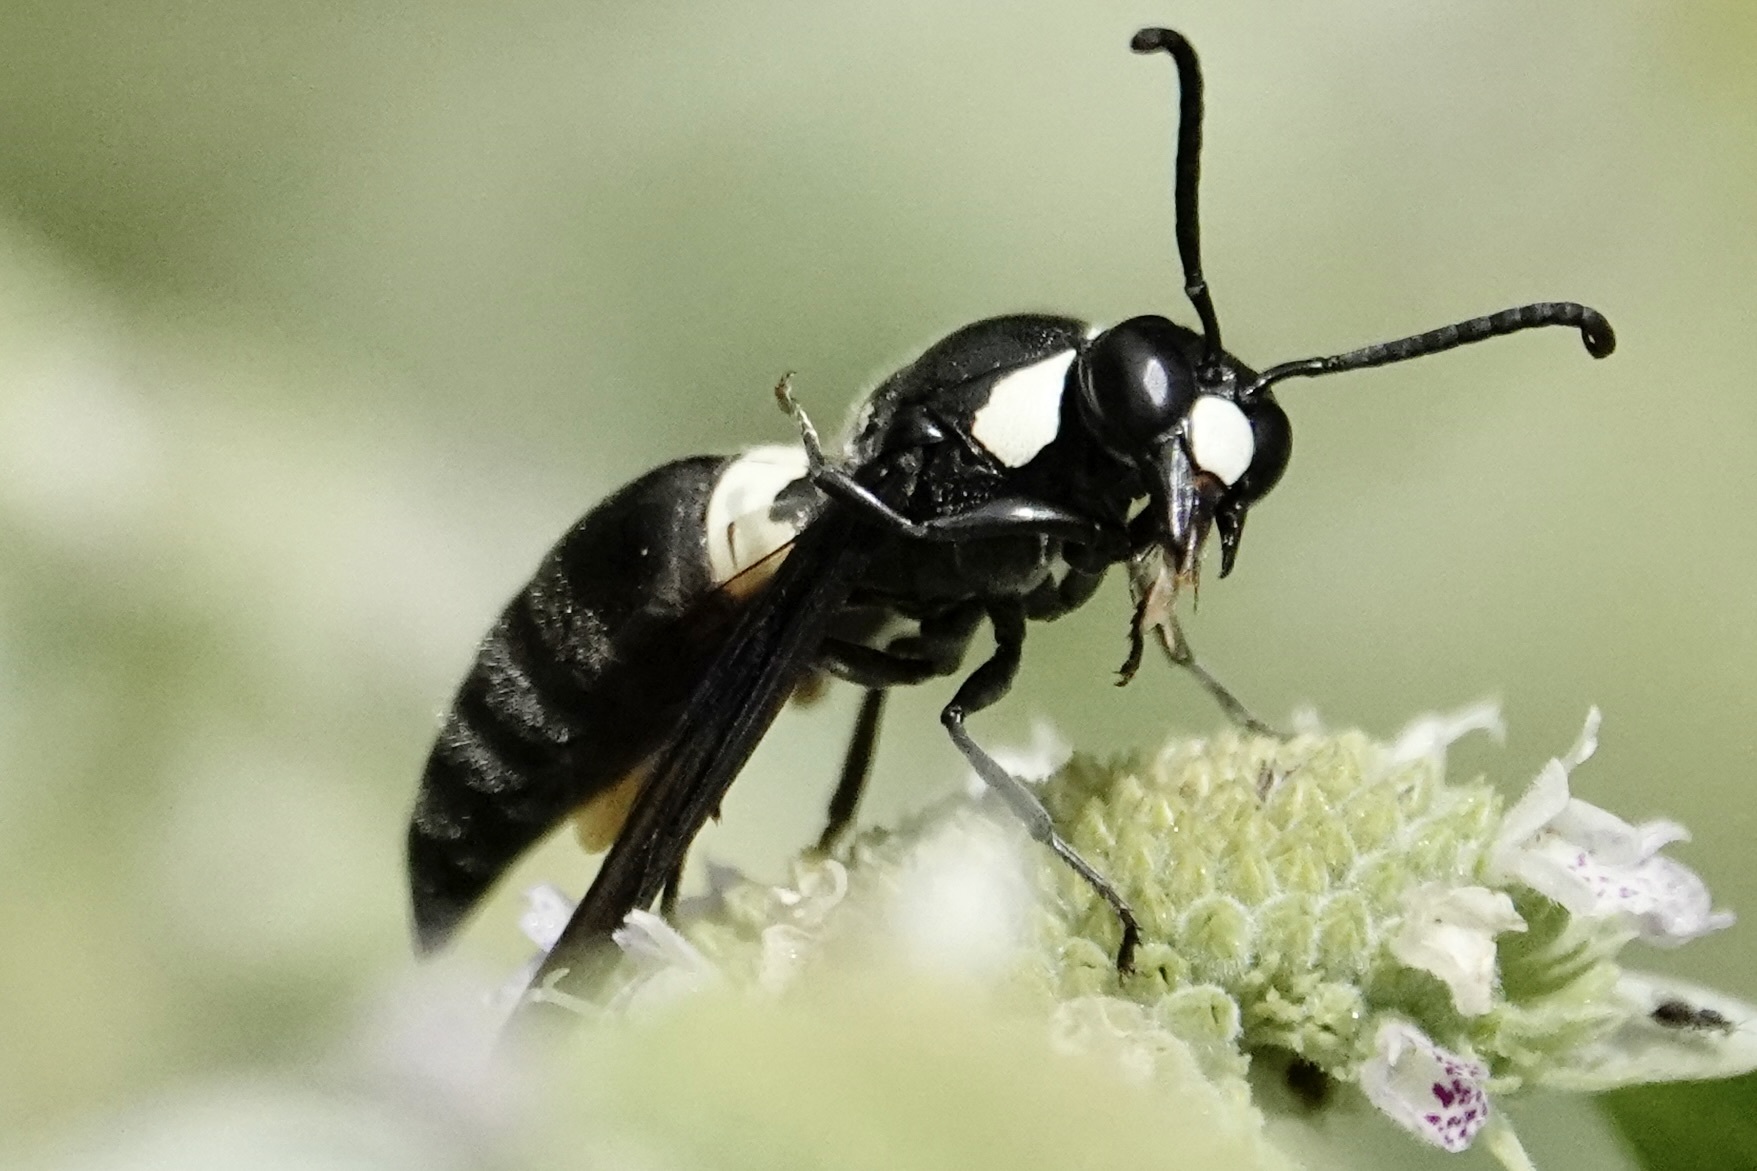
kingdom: Animalia
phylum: Arthropoda
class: Insecta
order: Hymenoptera
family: Eumenidae
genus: Monobia
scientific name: Monobia quadridens
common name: Four-toothed mason wasp
